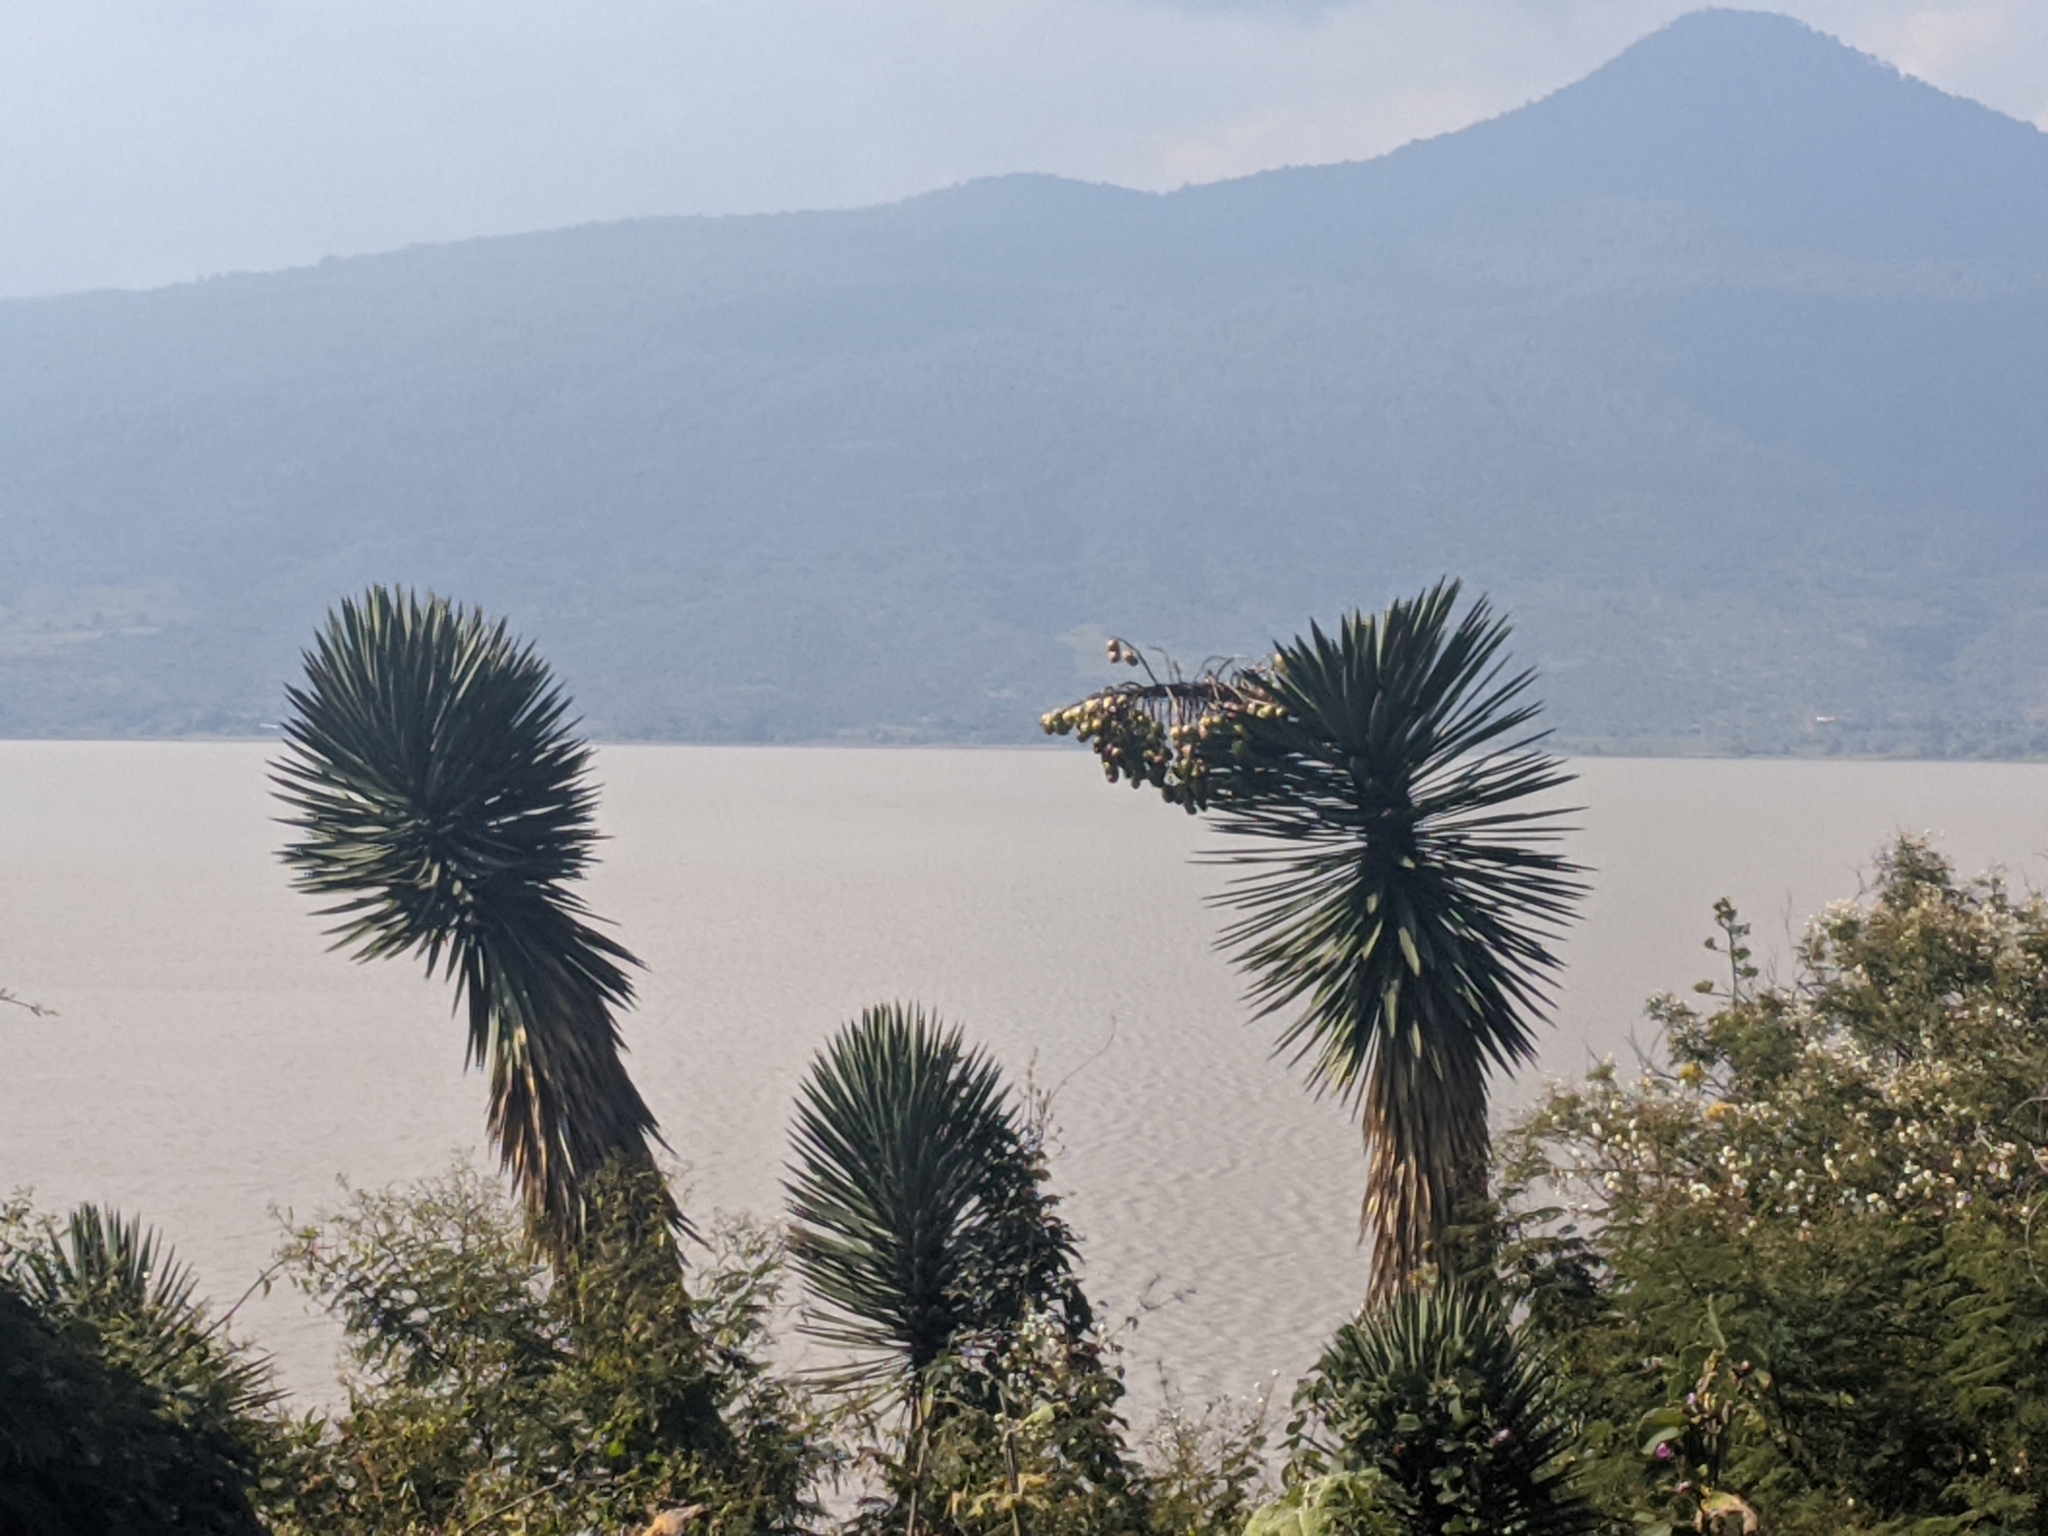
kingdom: Plantae
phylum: Tracheophyta
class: Liliopsida
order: Asparagales
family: Asparagaceae
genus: Yucca
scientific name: Yucca filifera
